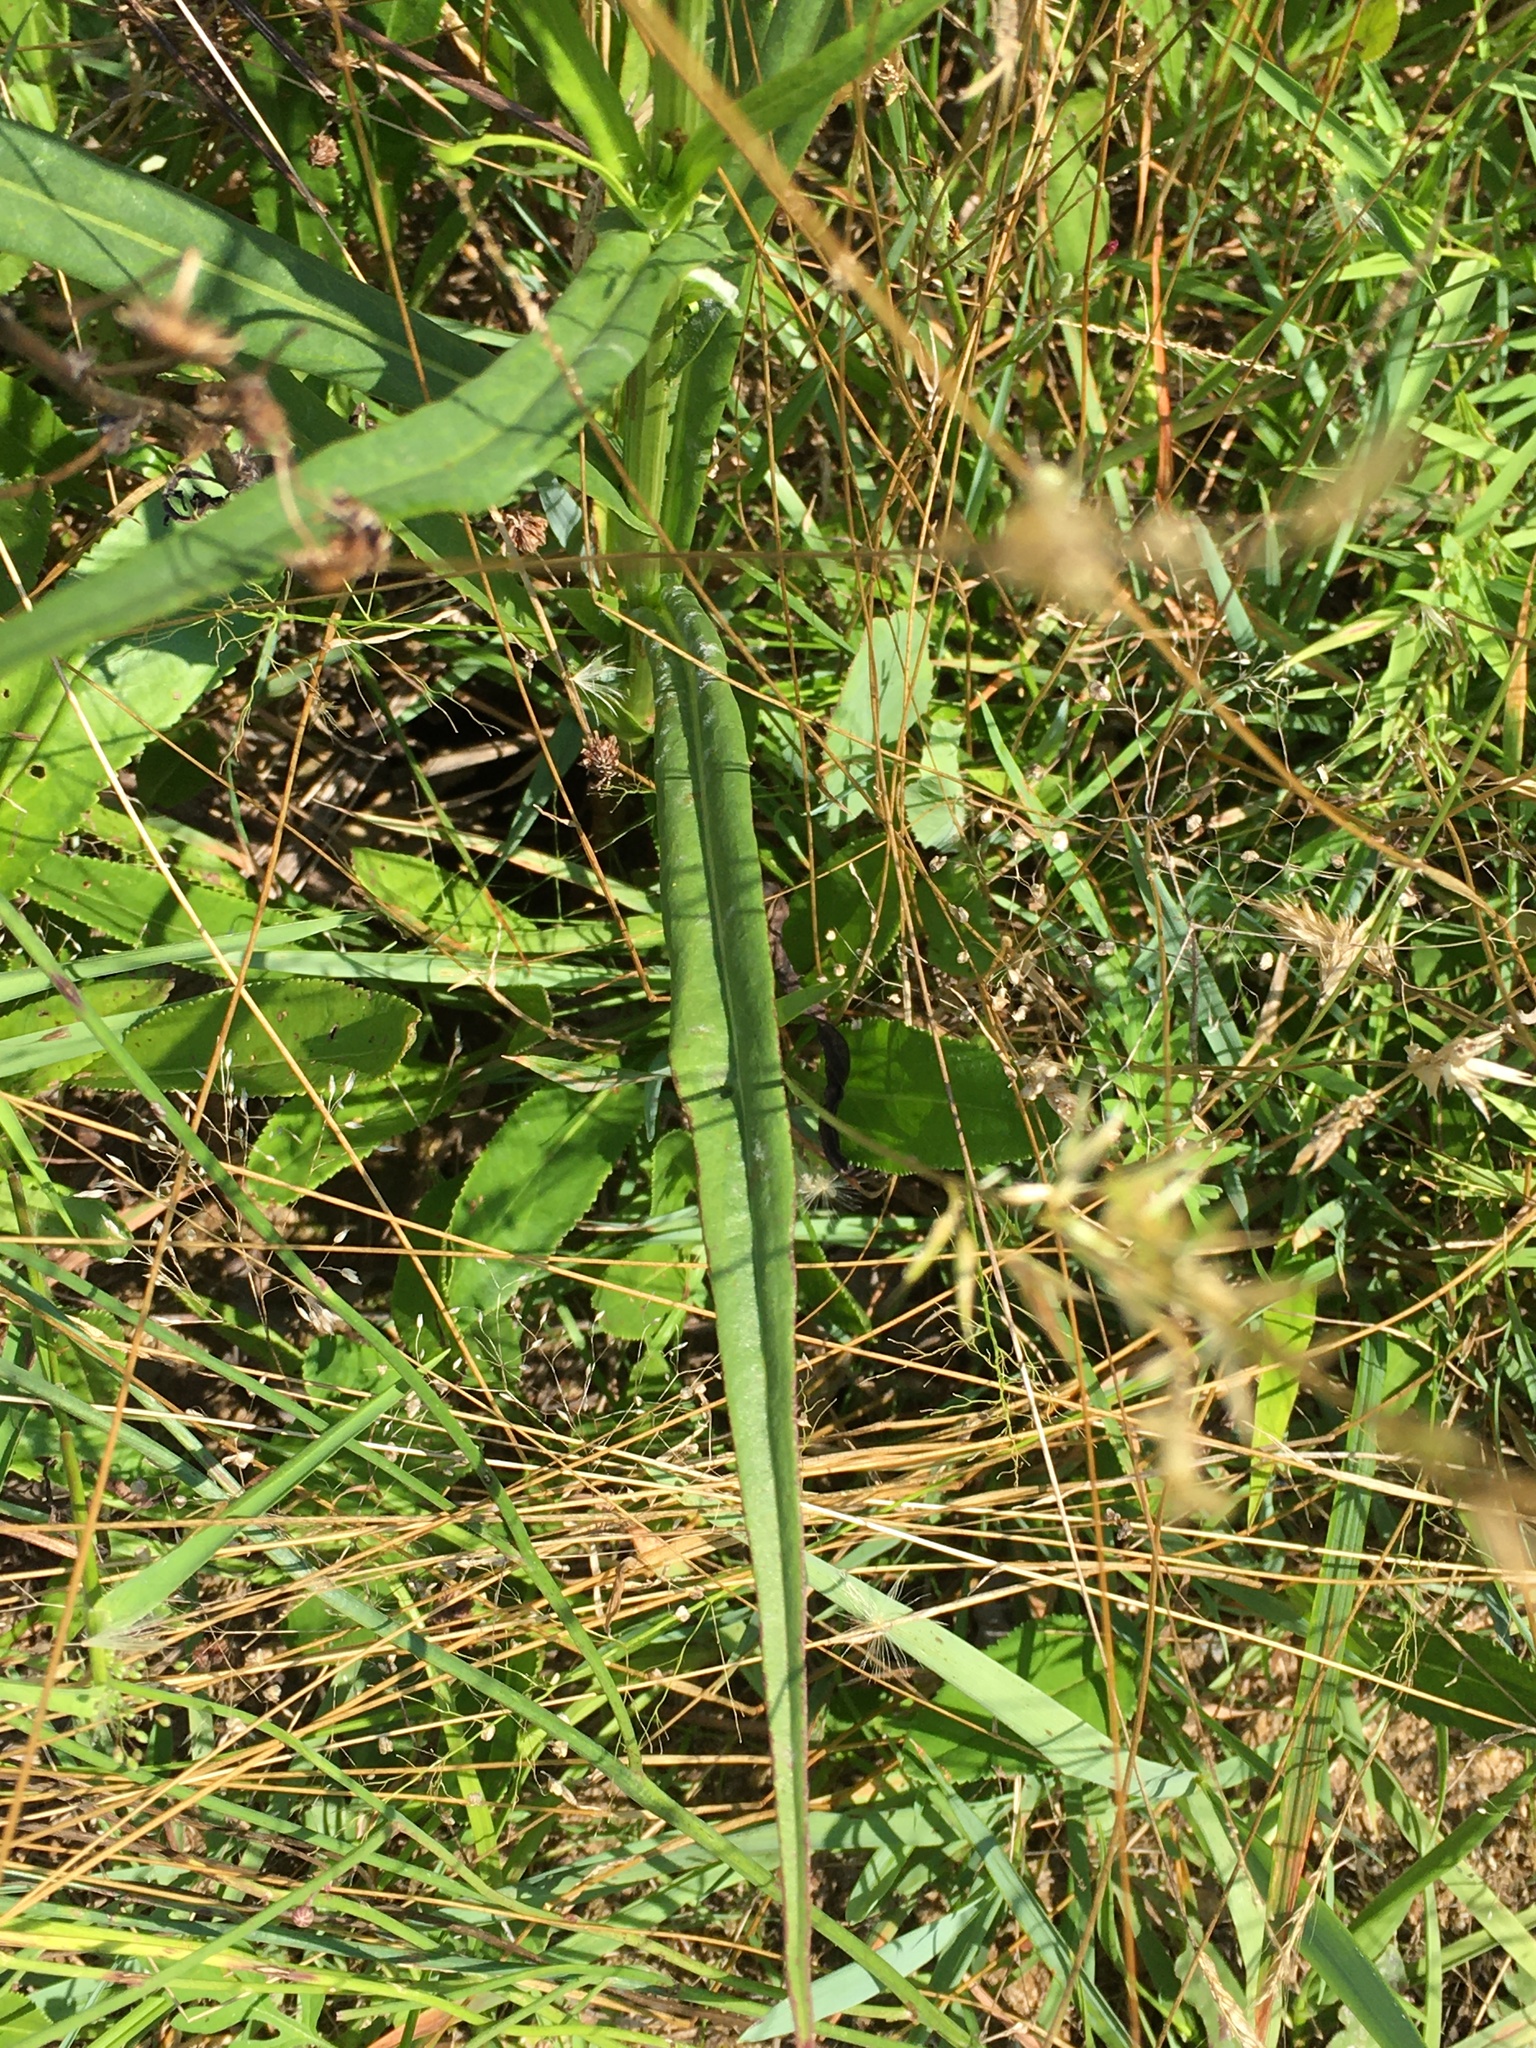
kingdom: Plantae
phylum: Tracheophyta
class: Magnoliopsida
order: Asterales
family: Asteraceae
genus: Pyrrhopappus
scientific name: Pyrrhopappus carolinianus
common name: Carolina desert-chicory
